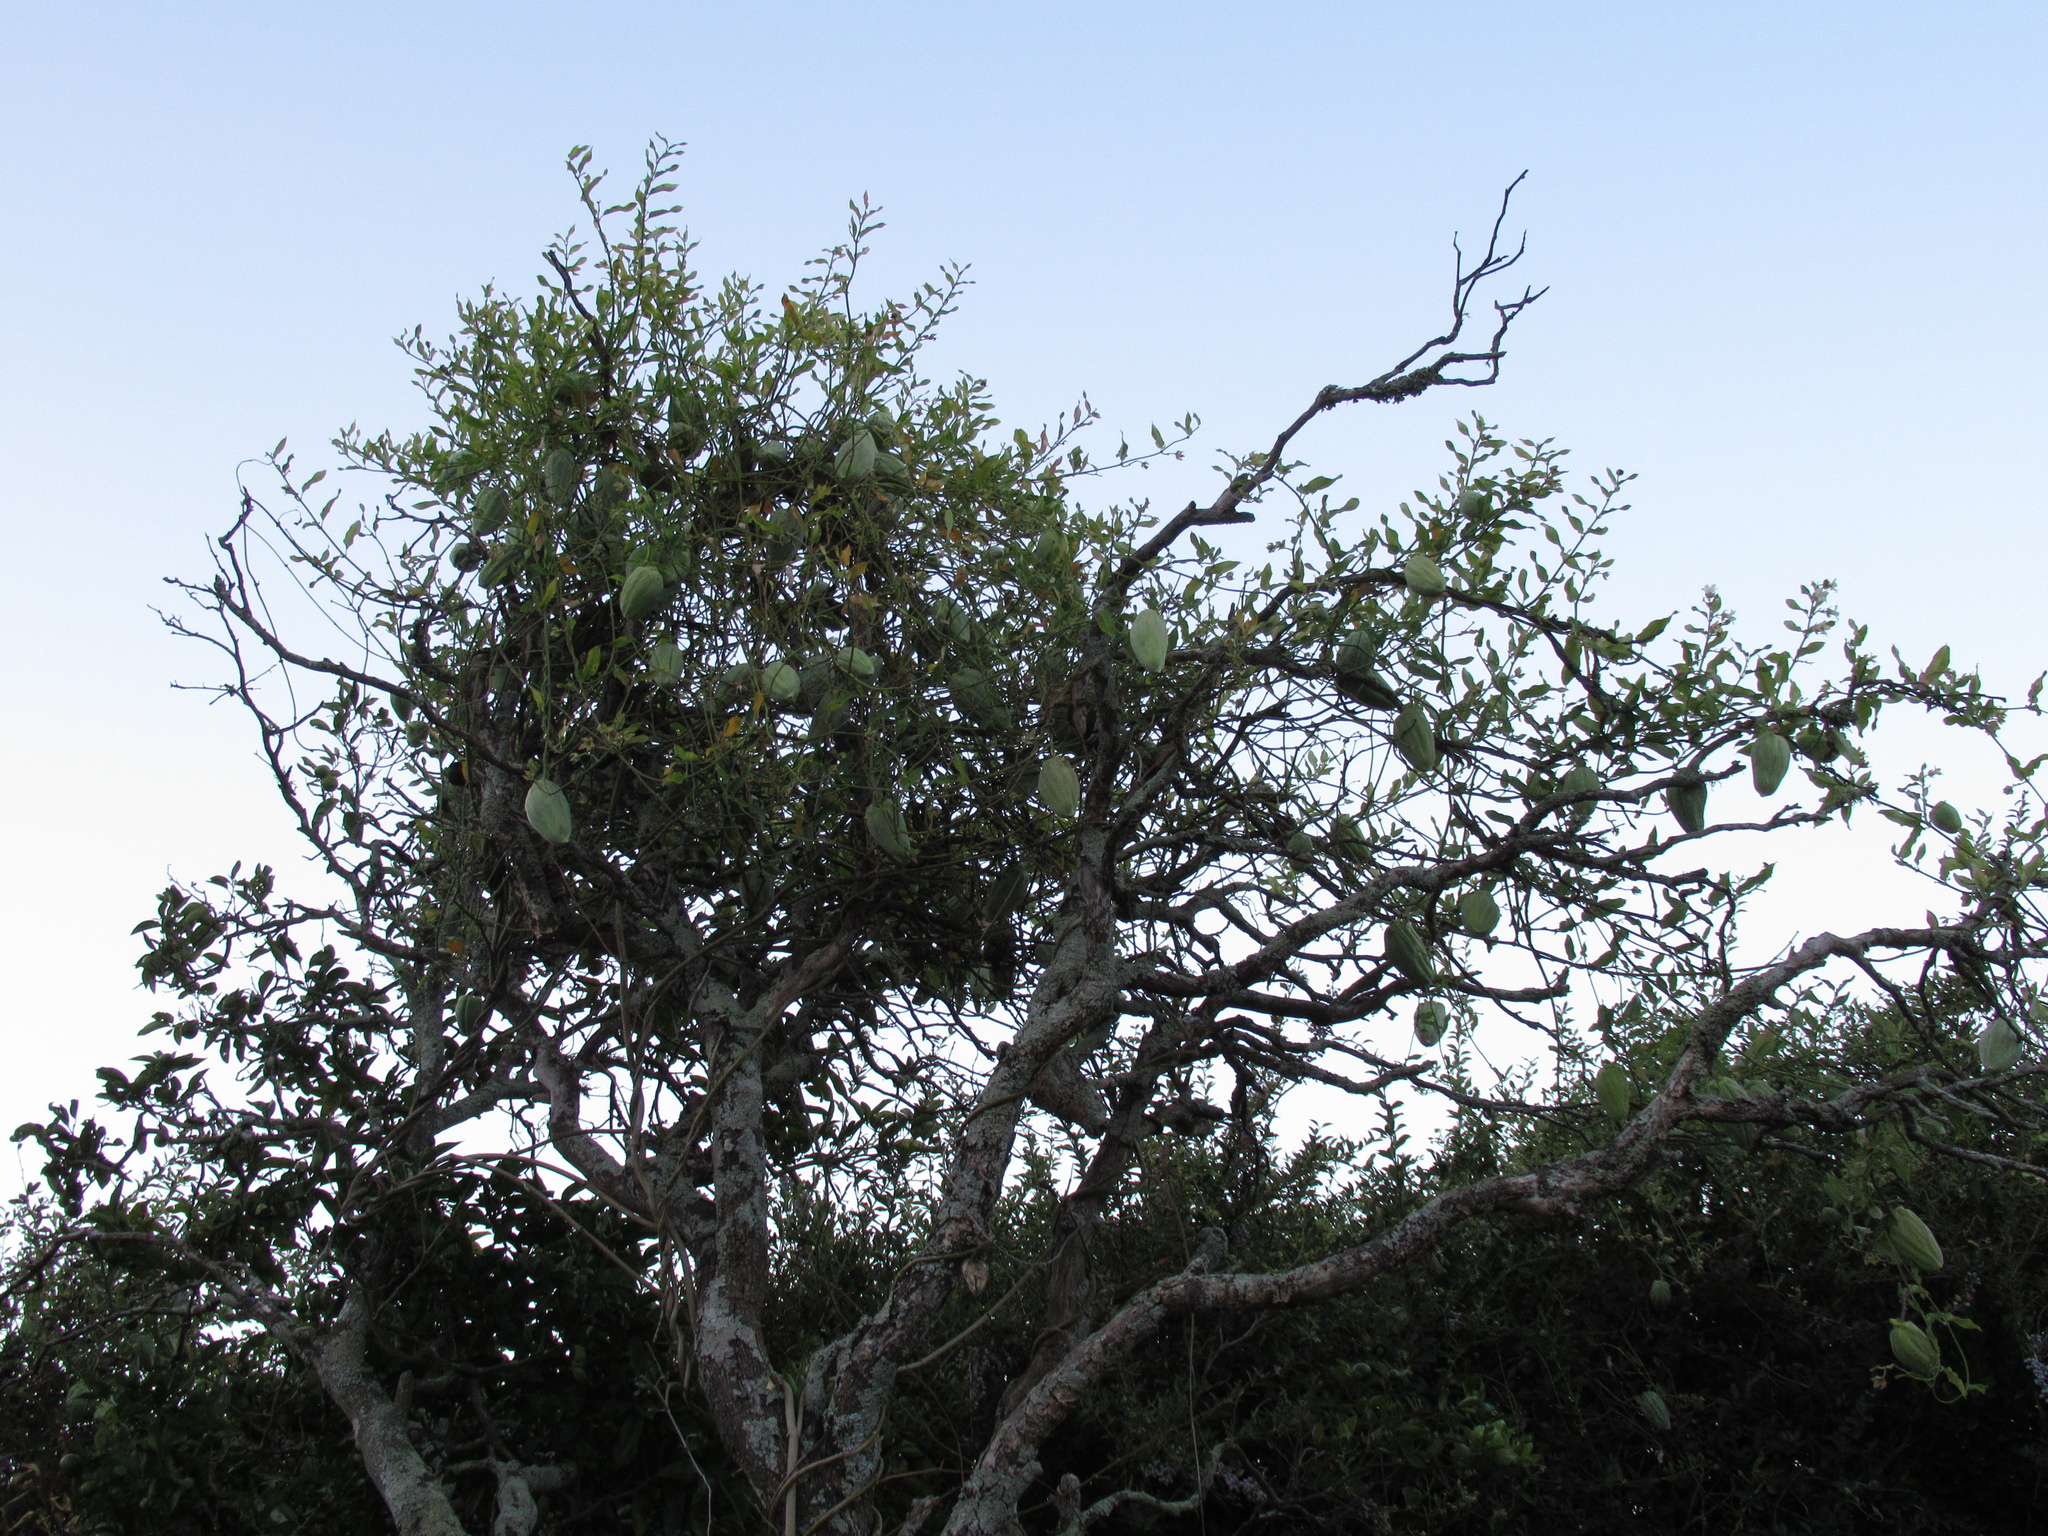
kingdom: Plantae
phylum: Tracheophyta
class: Magnoliopsida
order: Gentianales
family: Apocynaceae
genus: Araujia
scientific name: Araujia sericifera
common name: White bladderflower
